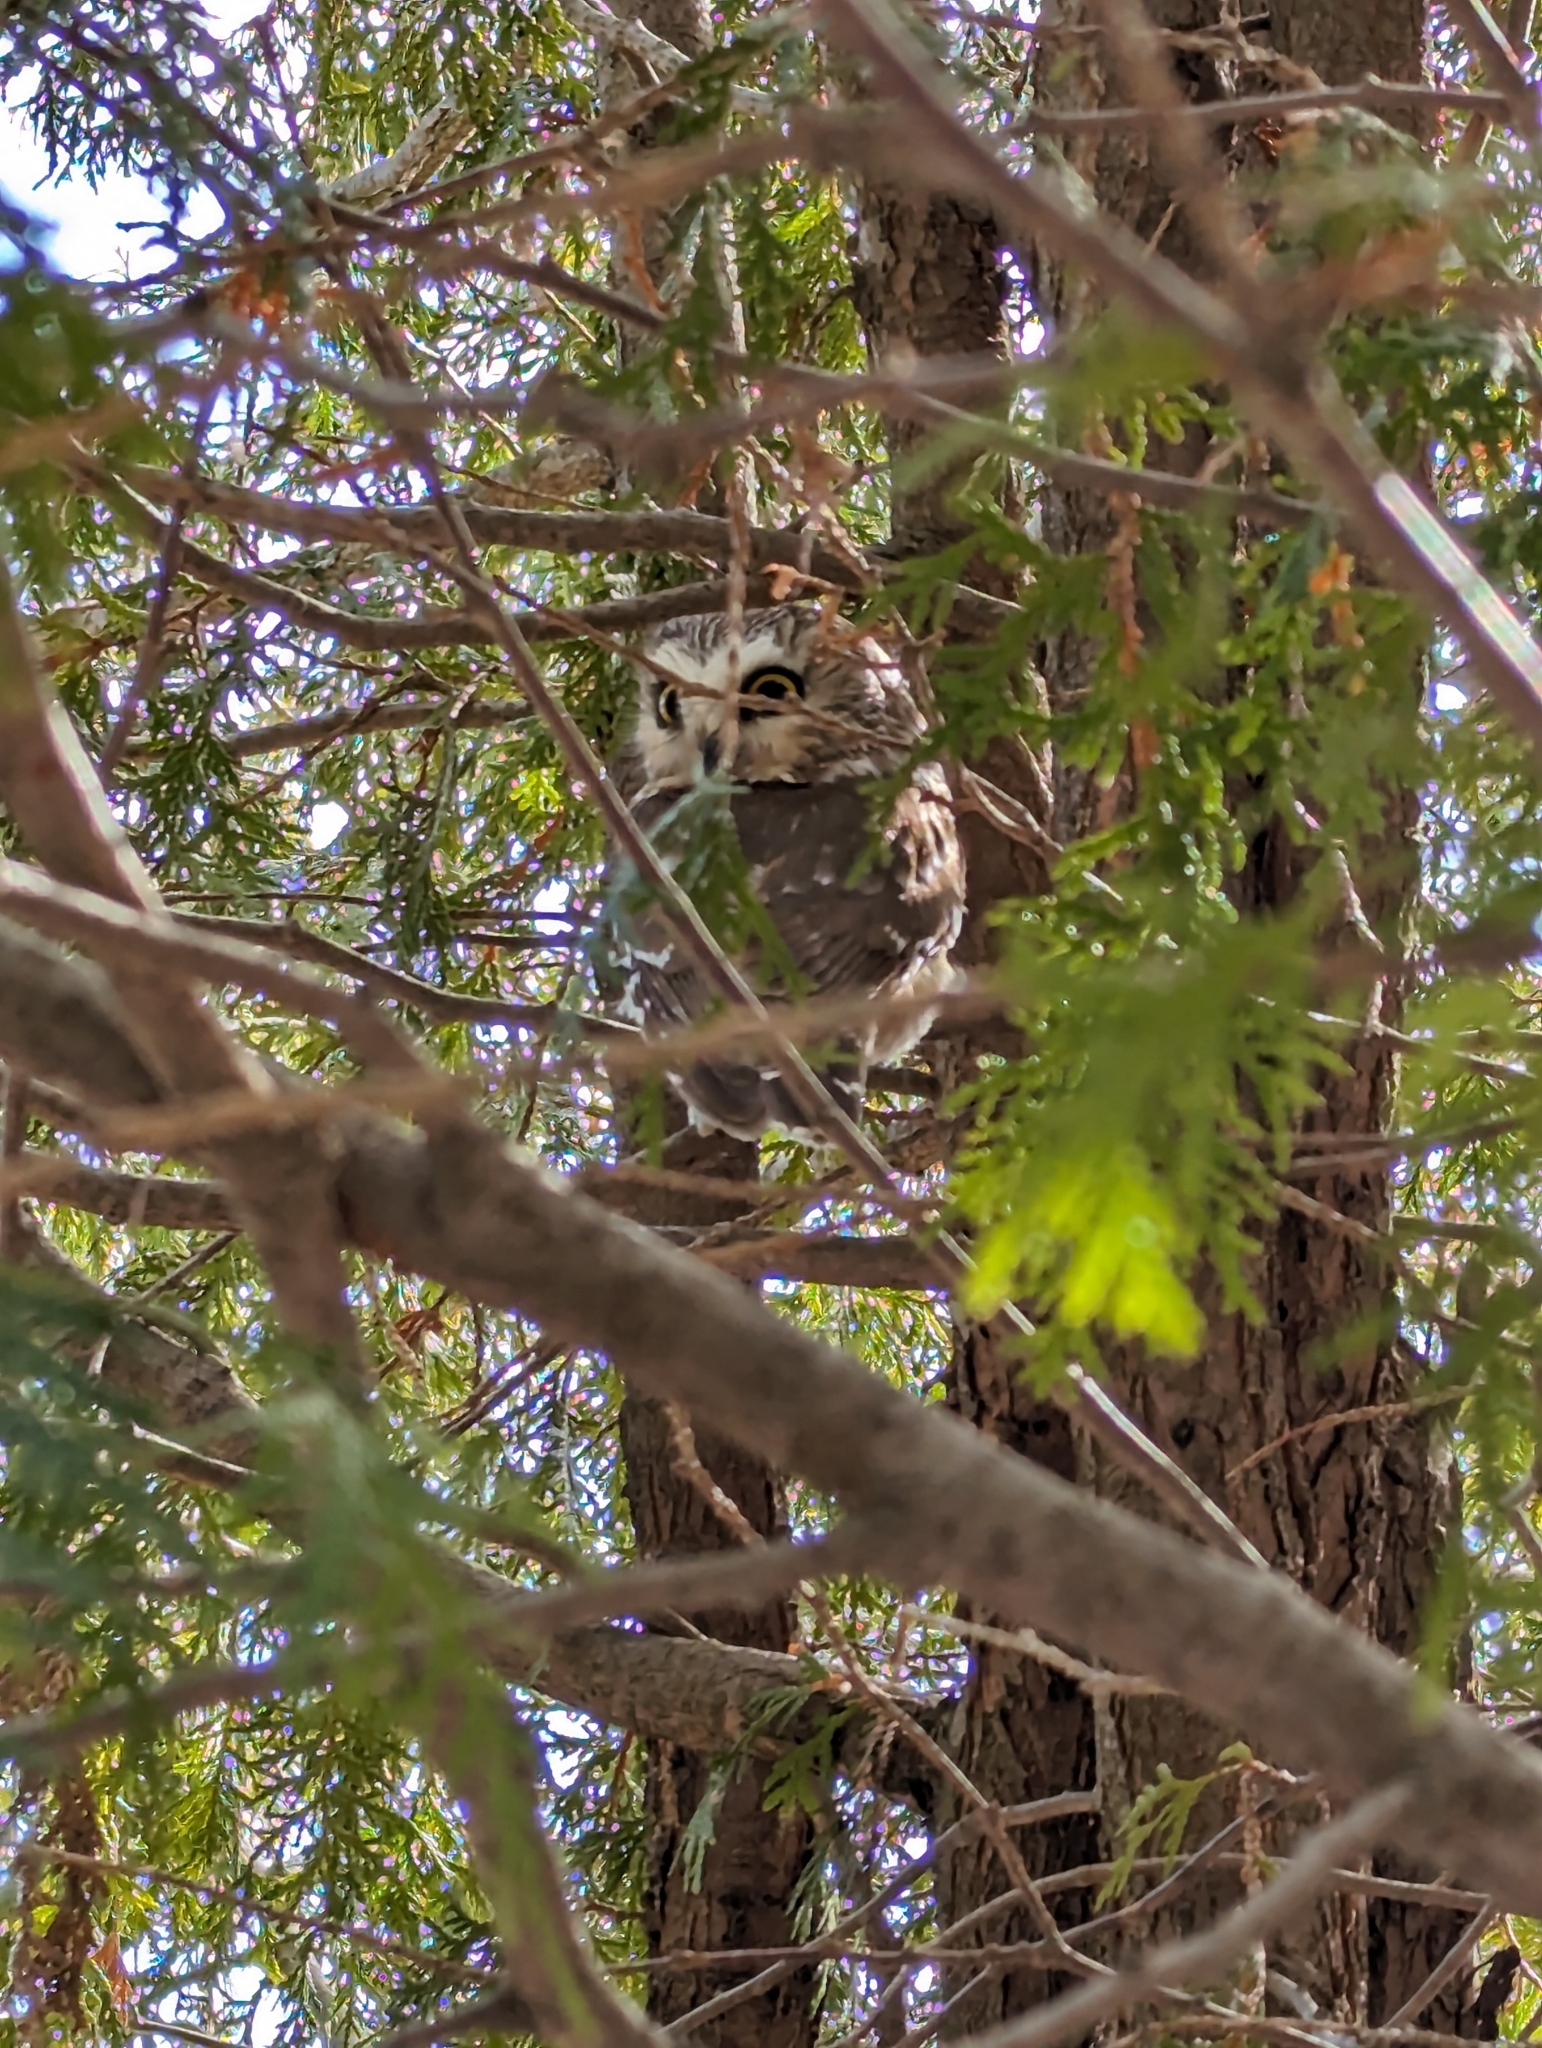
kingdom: Animalia
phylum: Chordata
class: Aves
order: Strigiformes
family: Strigidae
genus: Aegolius
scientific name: Aegolius acadicus
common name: Northern saw-whet owl
